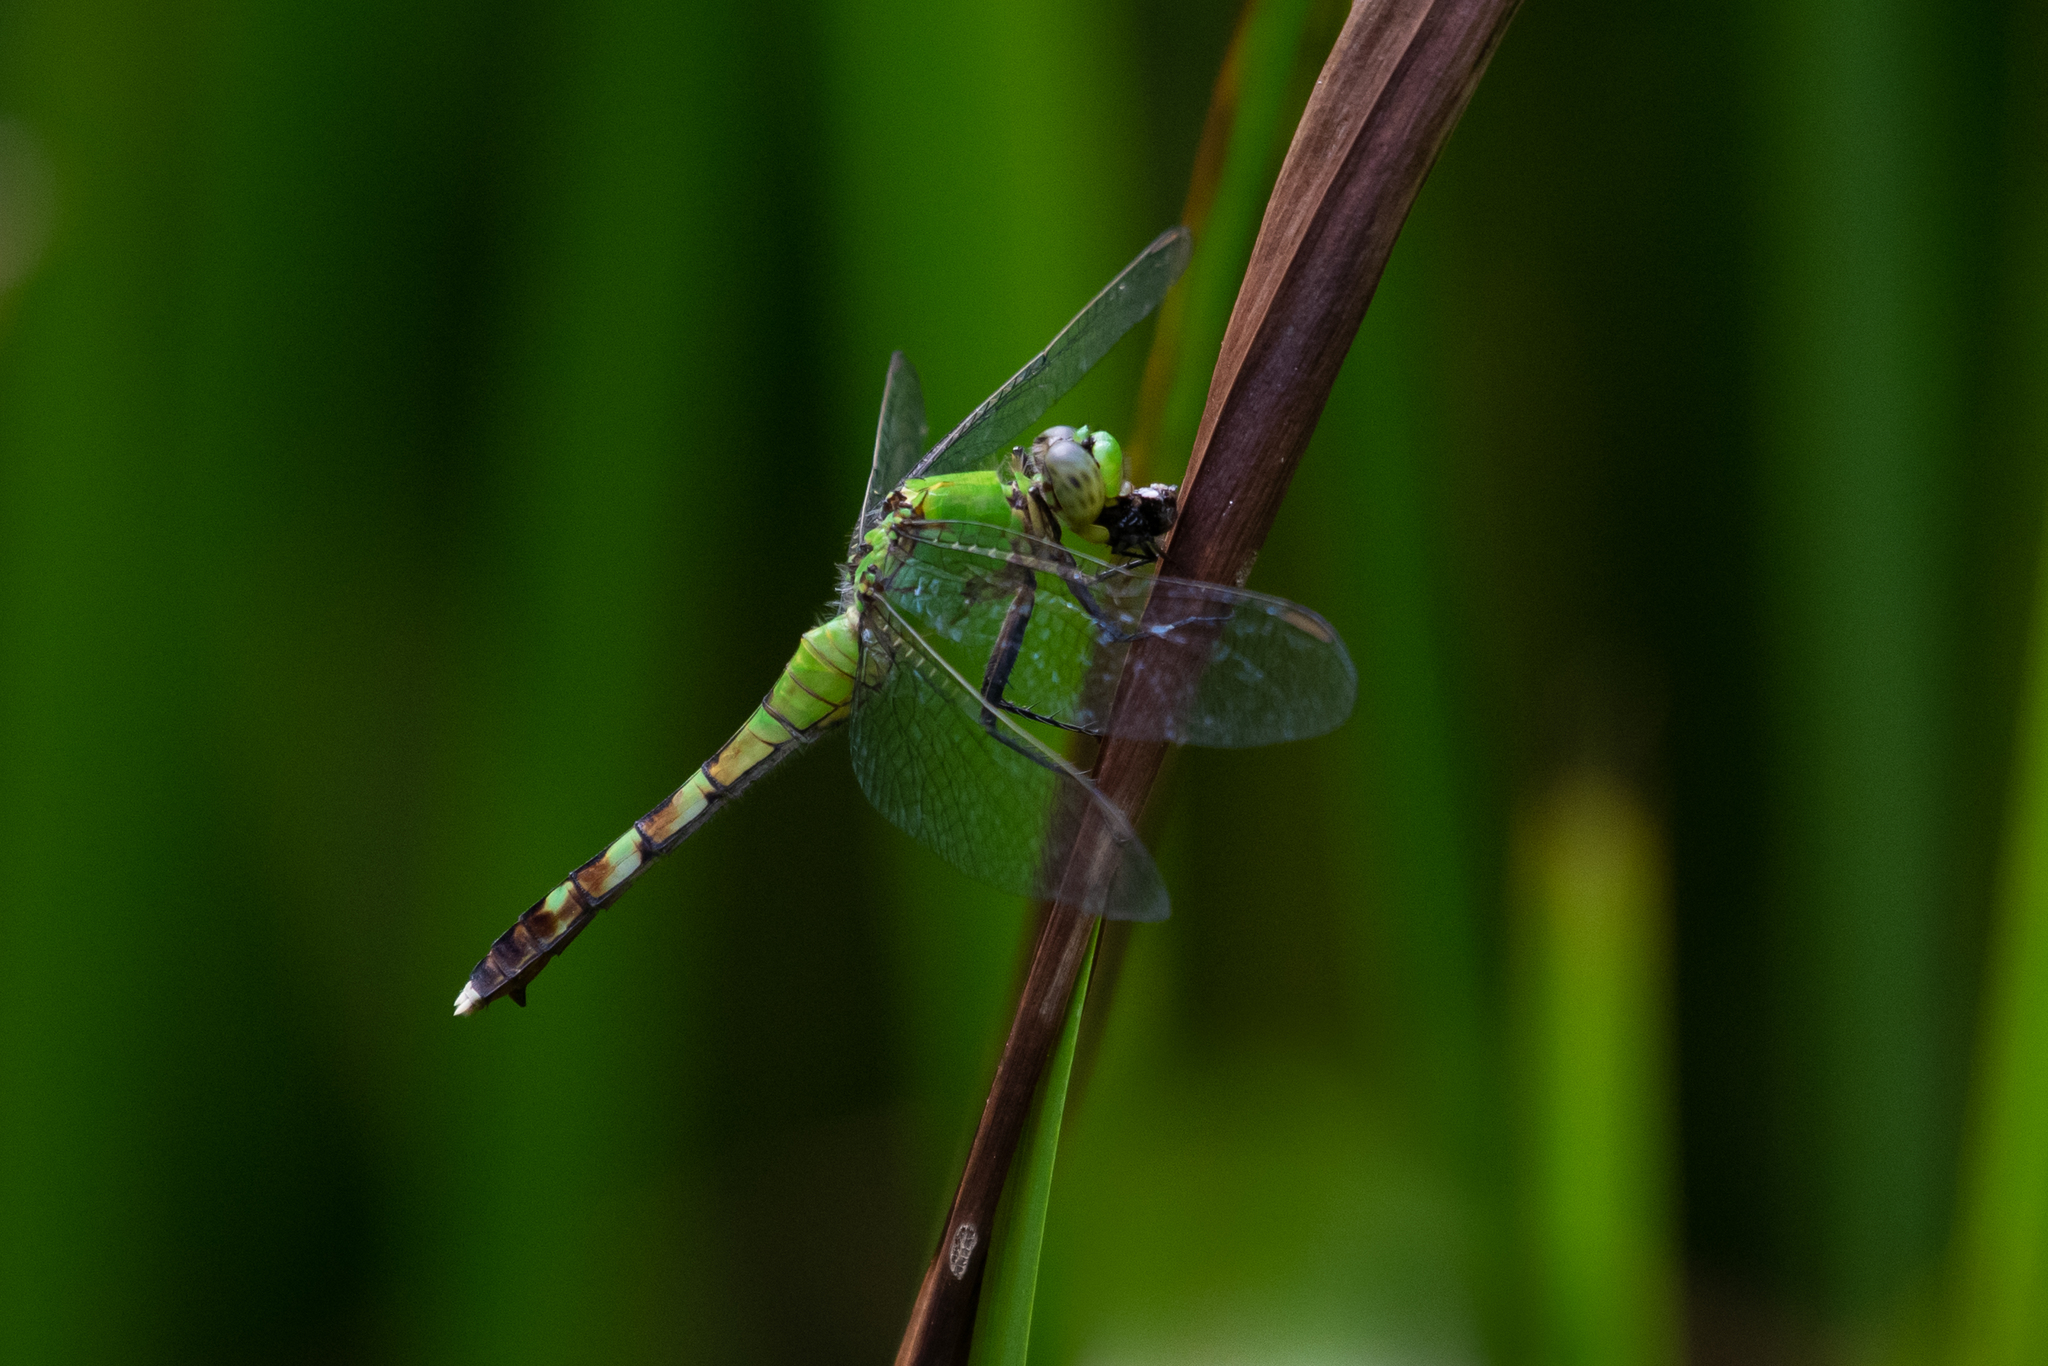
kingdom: Animalia
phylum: Arthropoda
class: Insecta
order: Odonata
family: Libellulidae
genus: Erythemis
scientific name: Erythemis simplicicollis
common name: Eastern pondhawk
